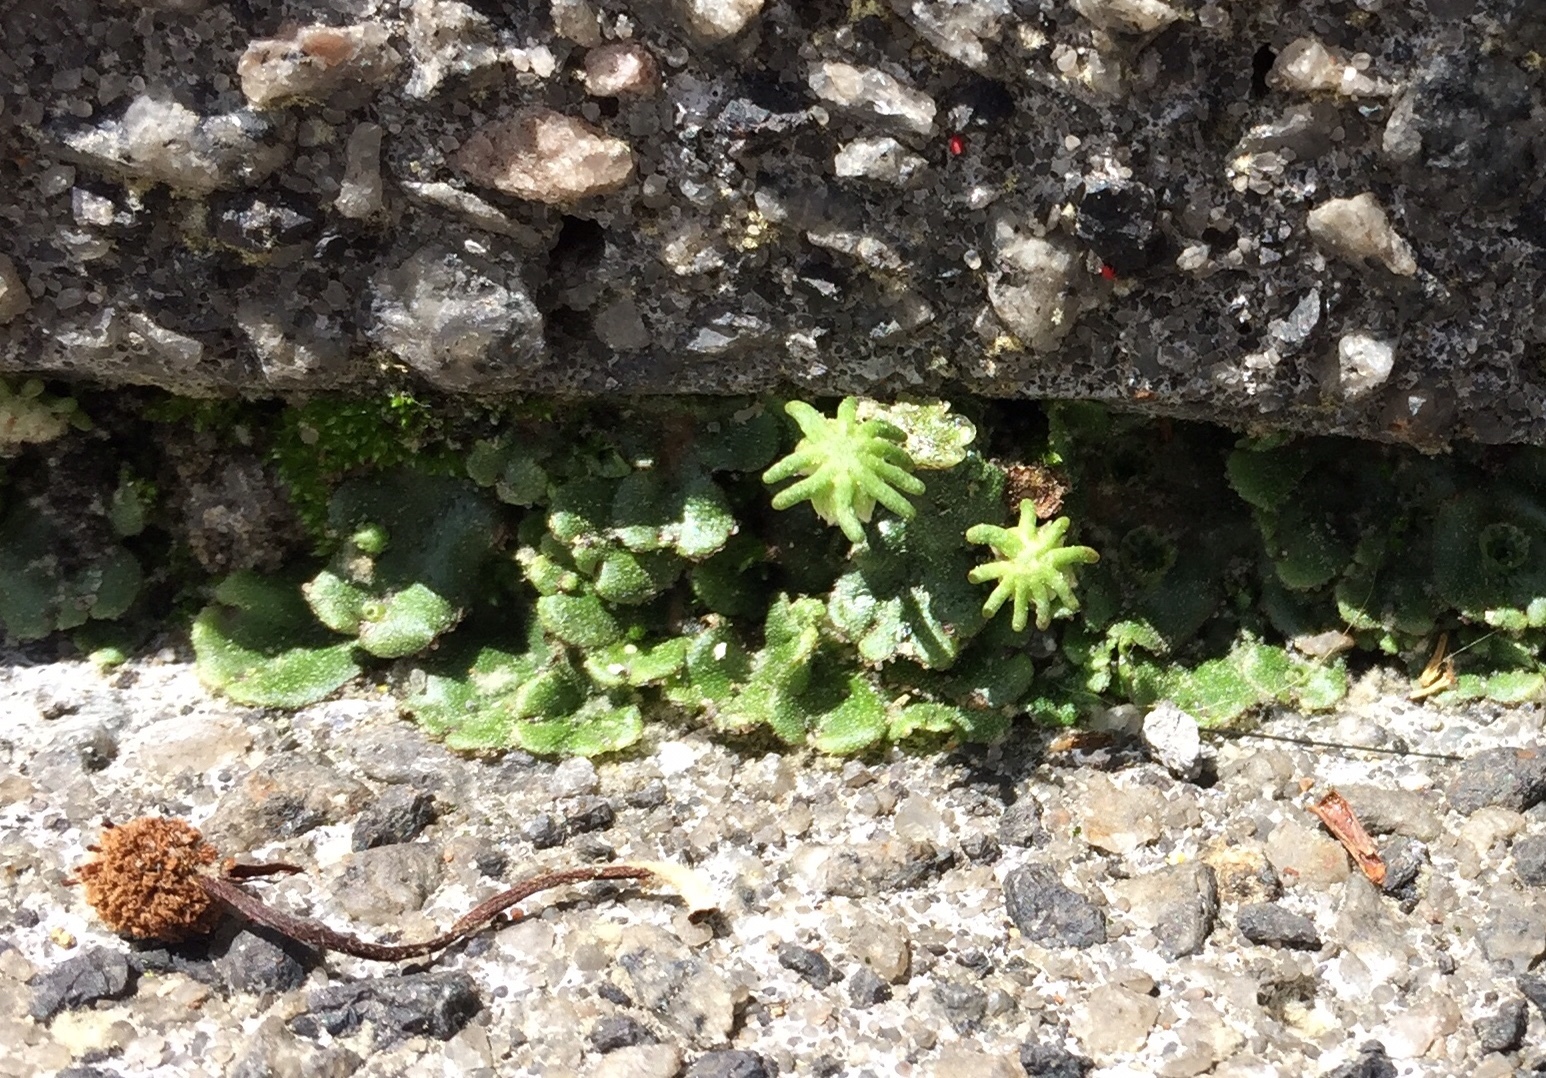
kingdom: Plantae
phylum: Marchantiophyta
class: Marchantiopsida
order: Marchantiales
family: Marchantiaceae
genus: Marchantia
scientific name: Marchantia polymorpha
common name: Common liverwort
